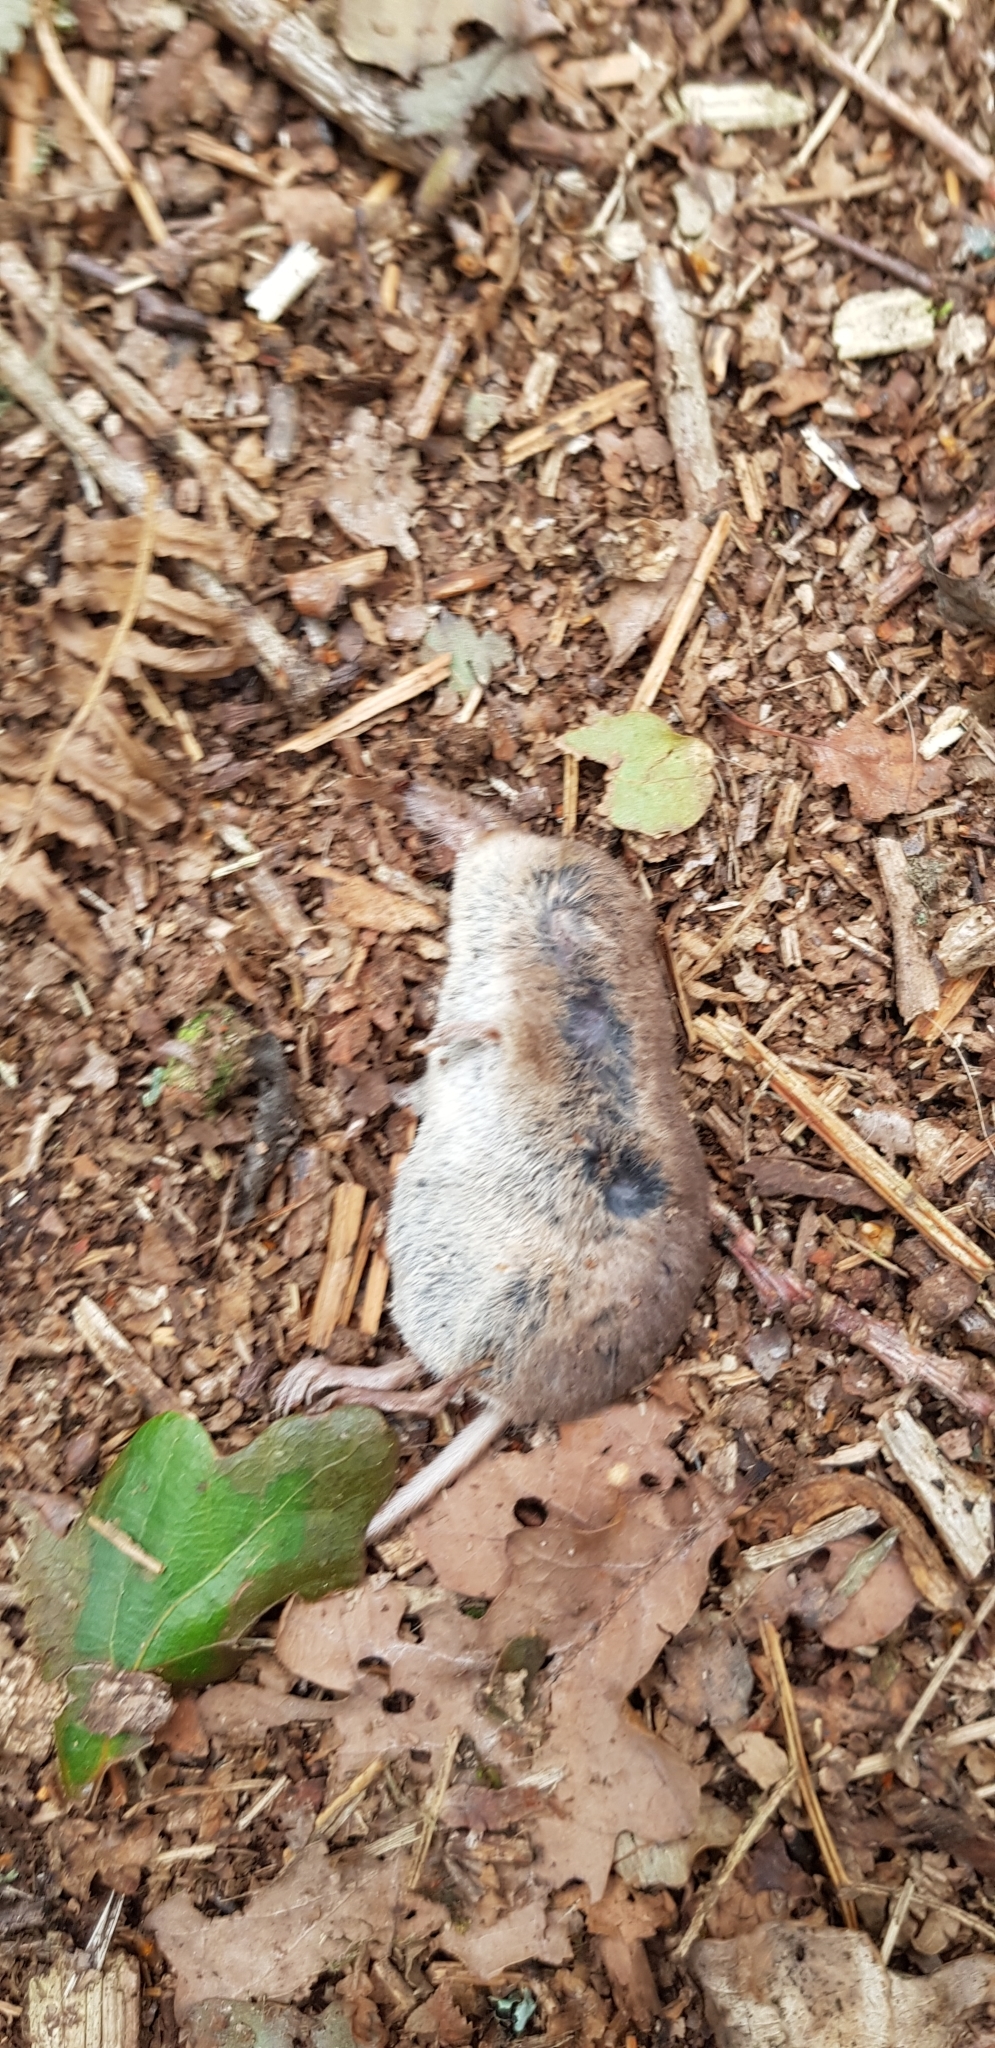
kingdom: Animalia
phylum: Chordata
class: Mammalia
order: Soricomorpha
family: Soricidae
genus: Sorex
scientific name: Sorex araneus
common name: Common shrew
